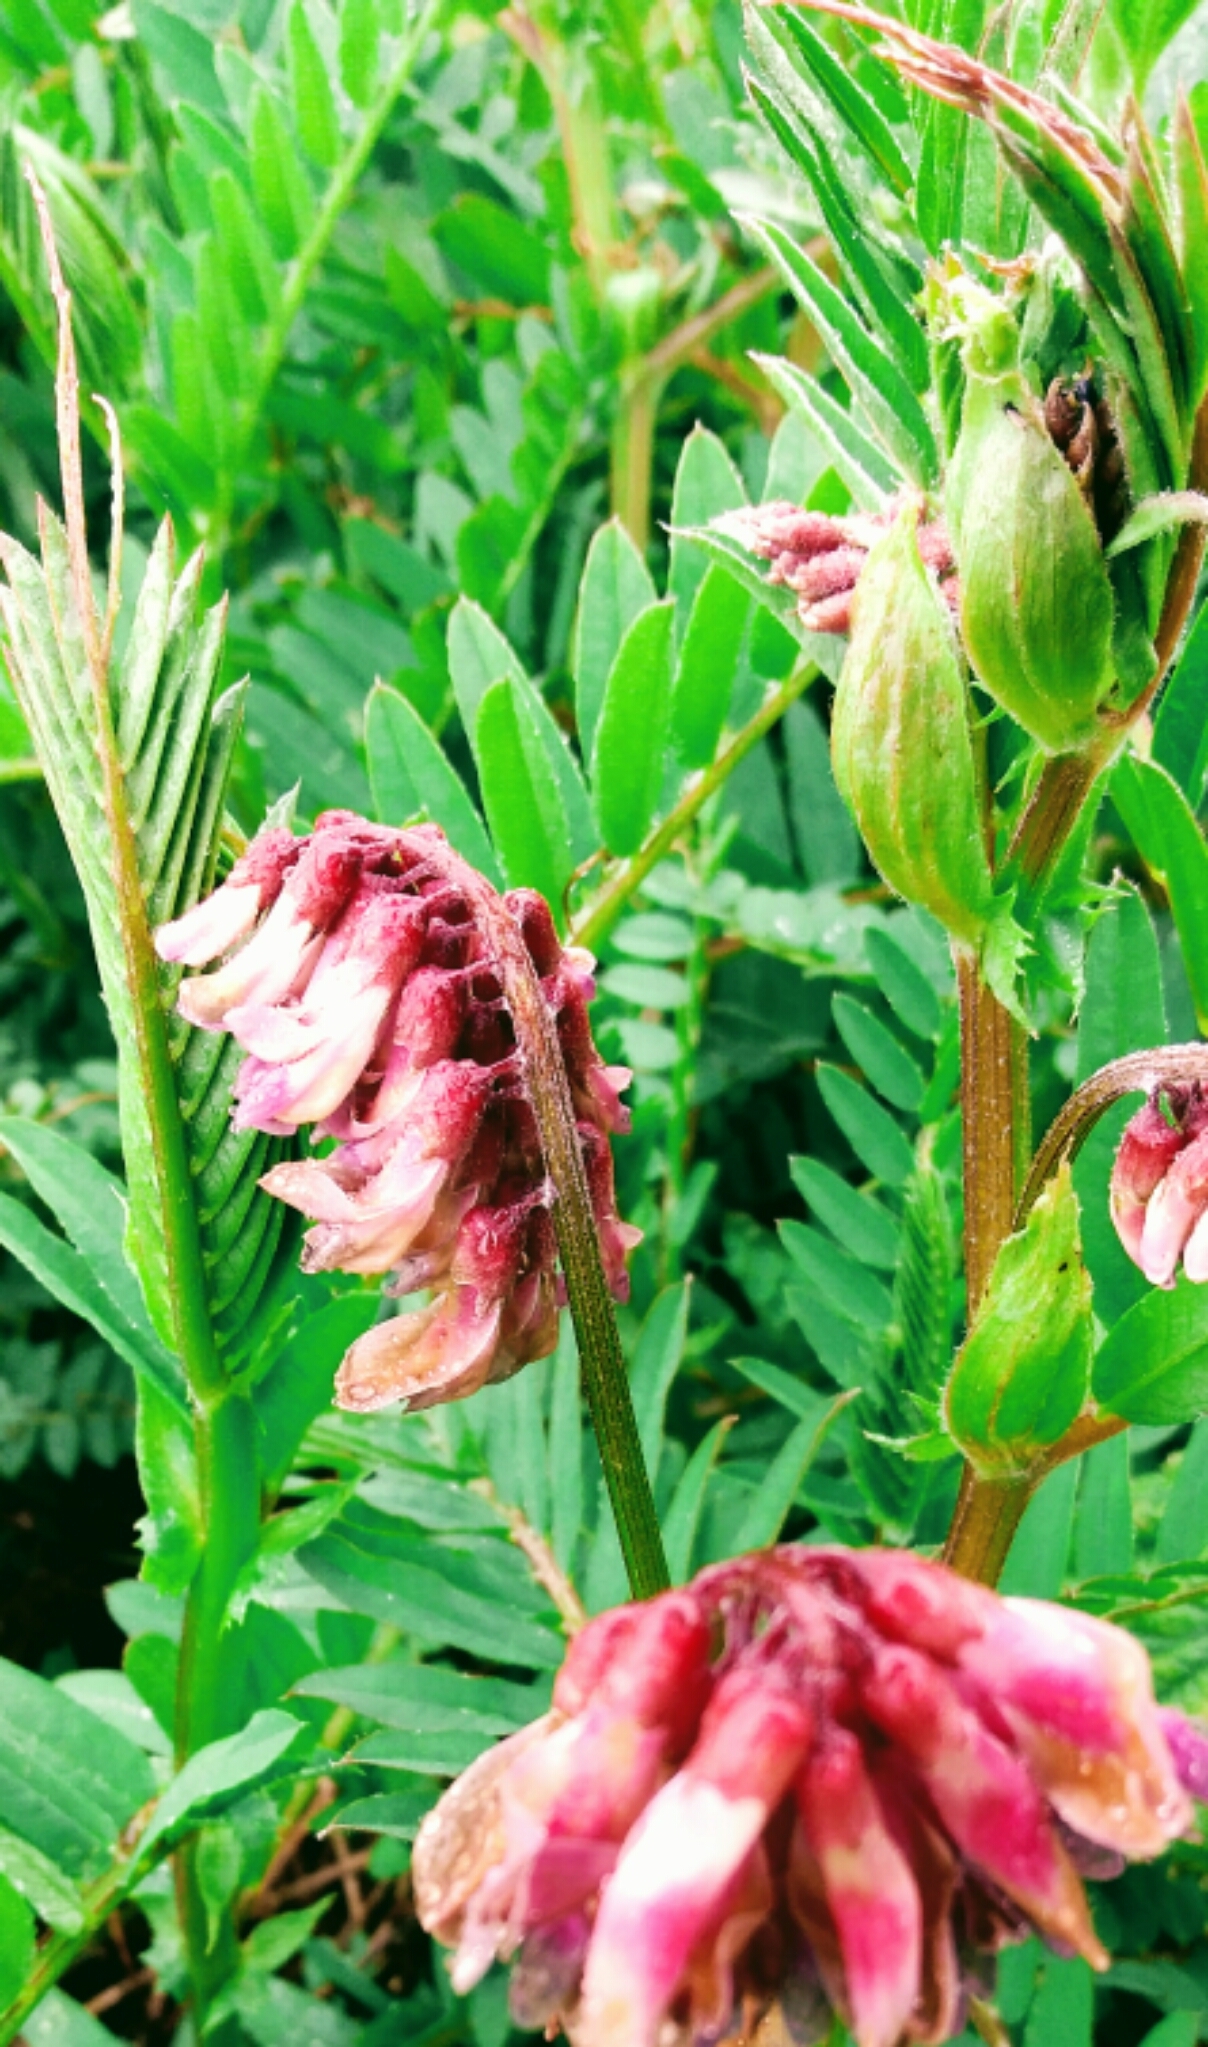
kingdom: Plantae
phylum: Tracheophyta
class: Magnoliopsida
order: Fabales
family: Fabaceae
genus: Vicia
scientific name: Vicia
